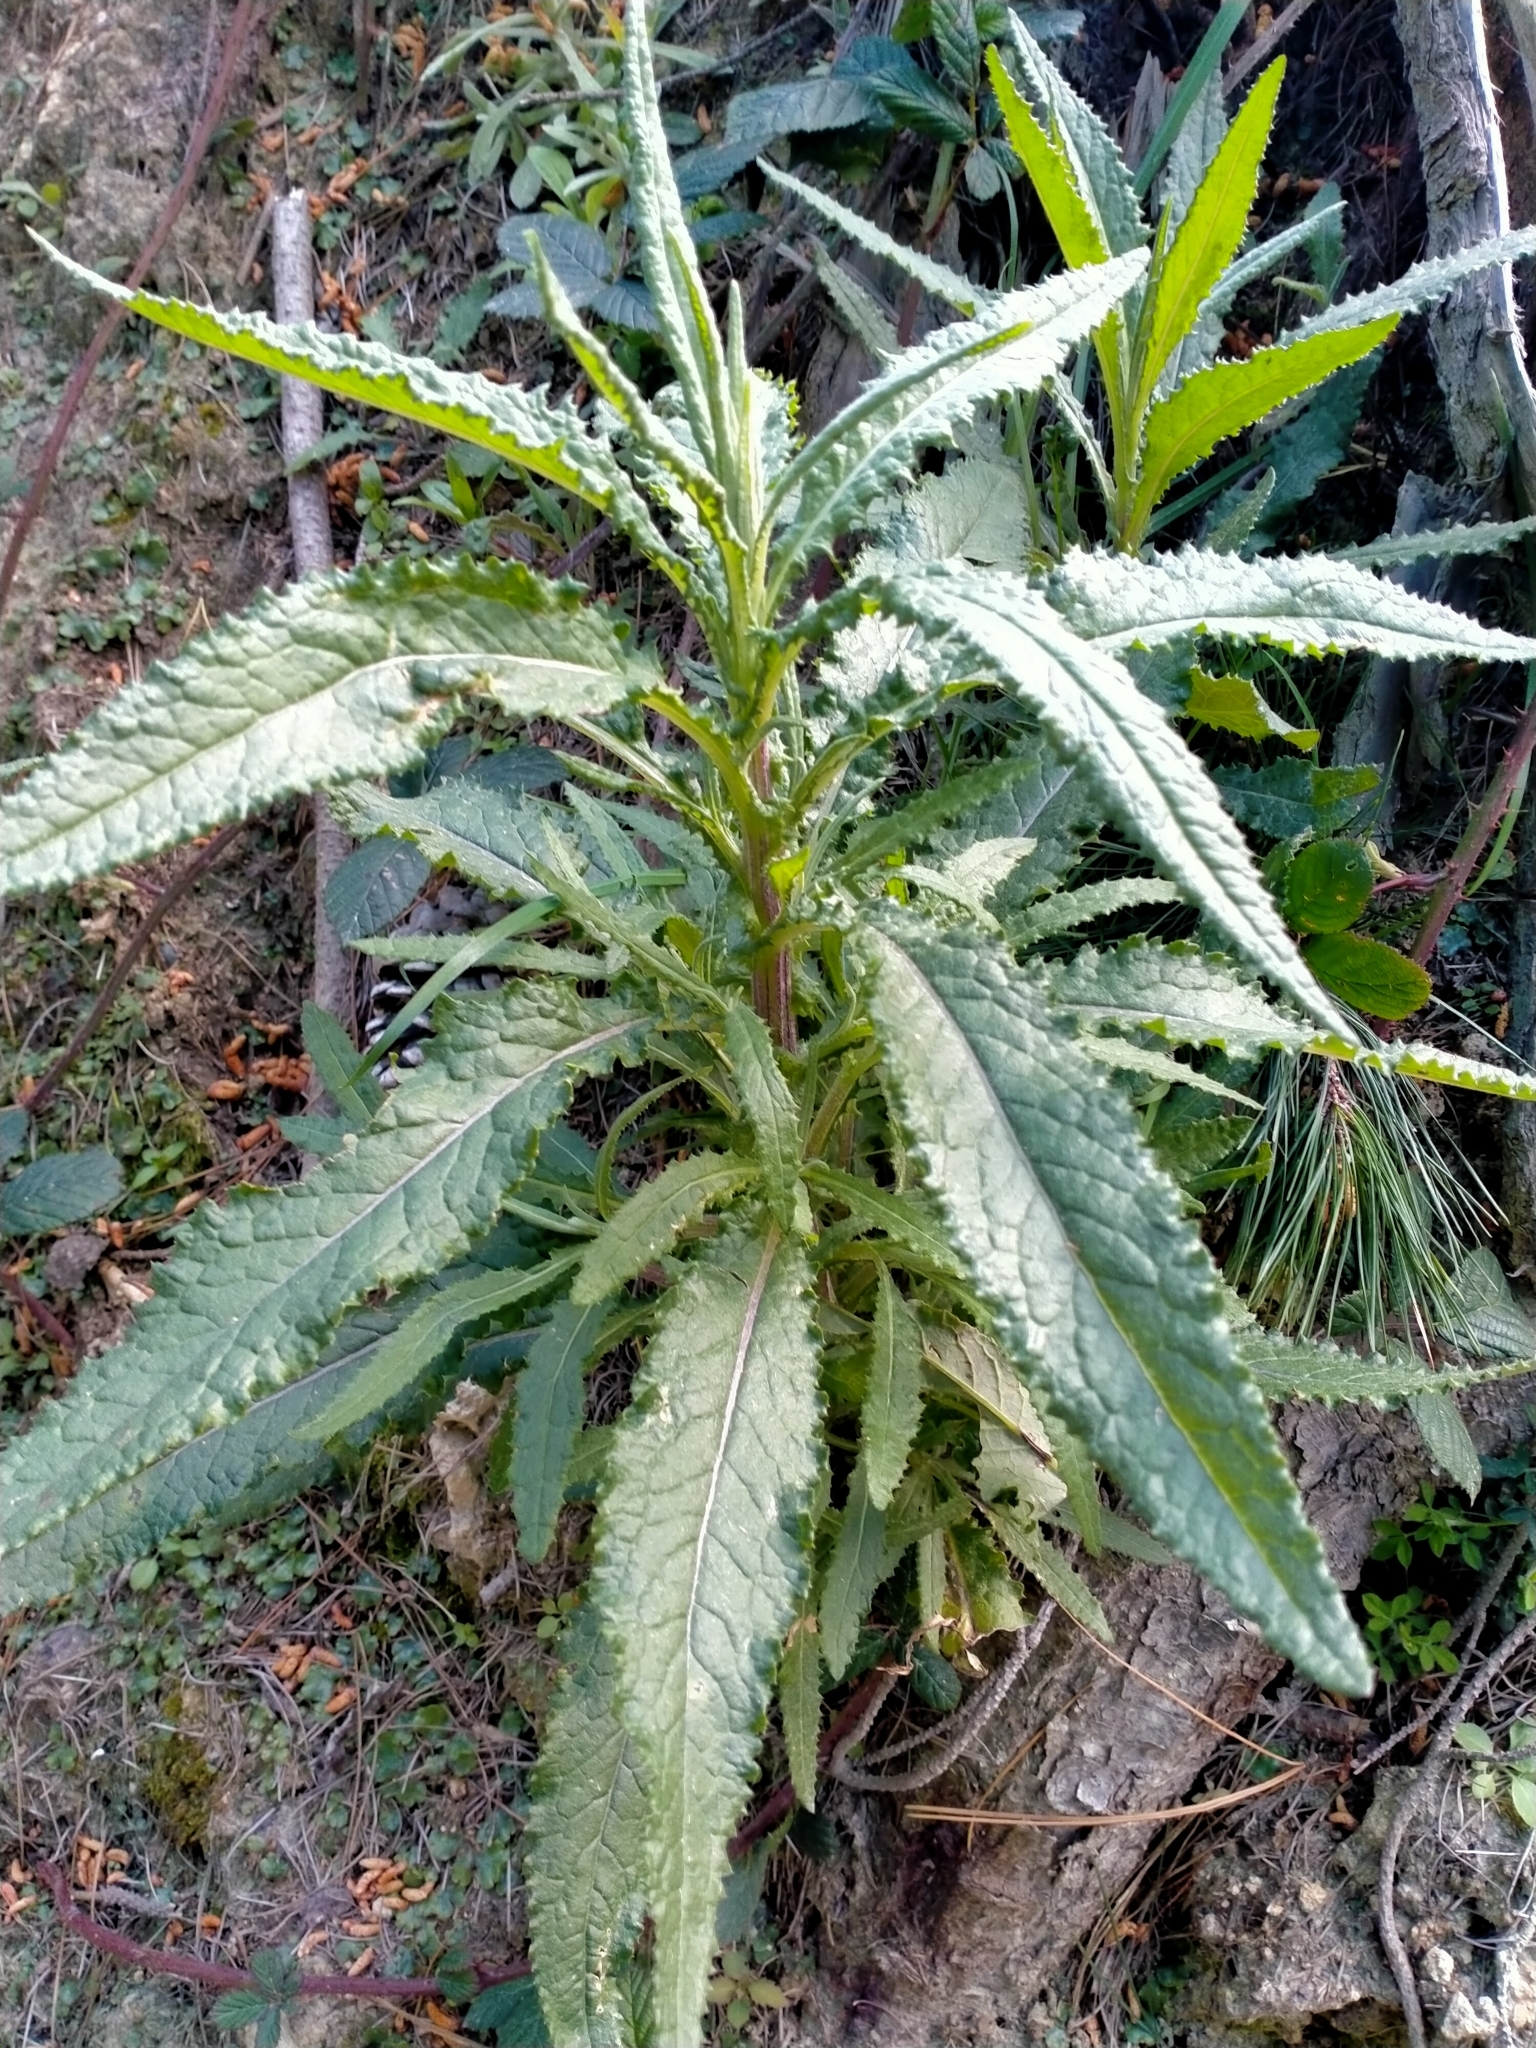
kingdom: Plantae
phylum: Tracheophyta
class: Magnoliopsida
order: Asterales
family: Asteraceae
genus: Senecio
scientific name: Senecio minimus
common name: Toothed fireweed
